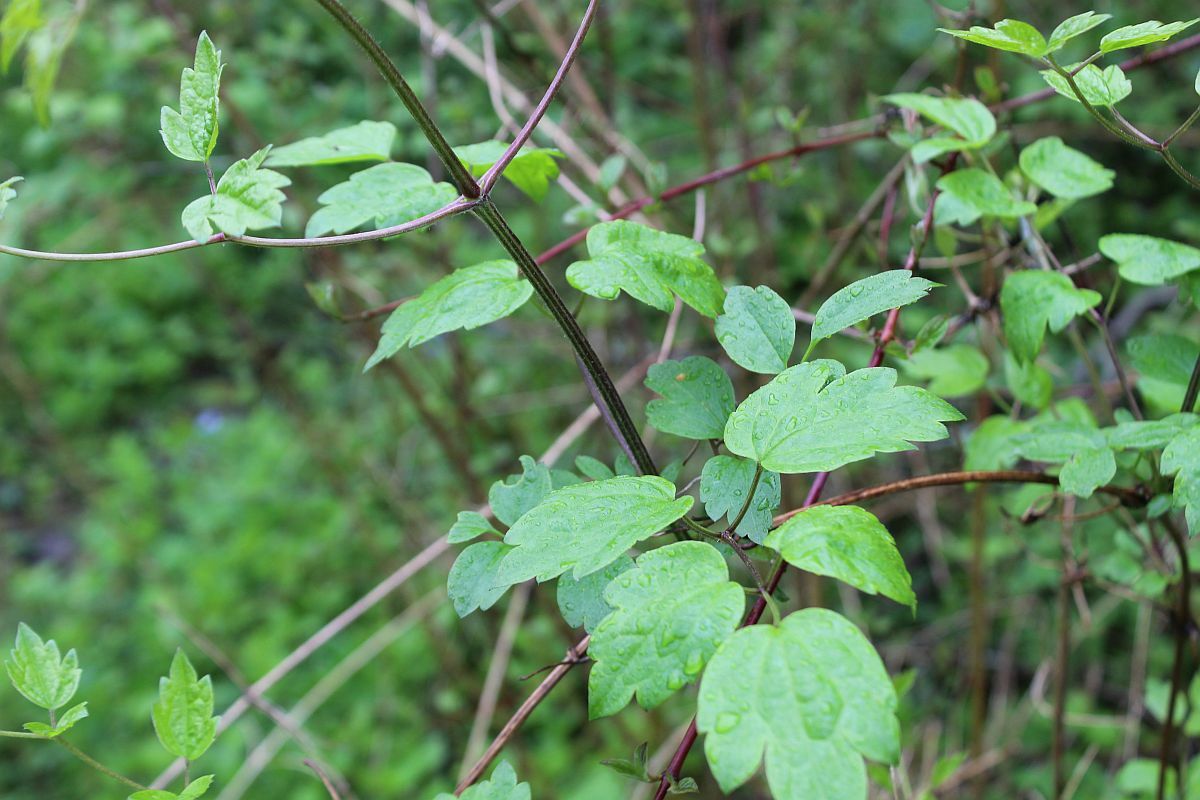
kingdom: Plantae
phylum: Tracheophyta
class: Magnoliopsida
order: Ranunculales
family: Ranunculaceae
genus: Clematis
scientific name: Clematis vitalba
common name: Evergreen clematis
